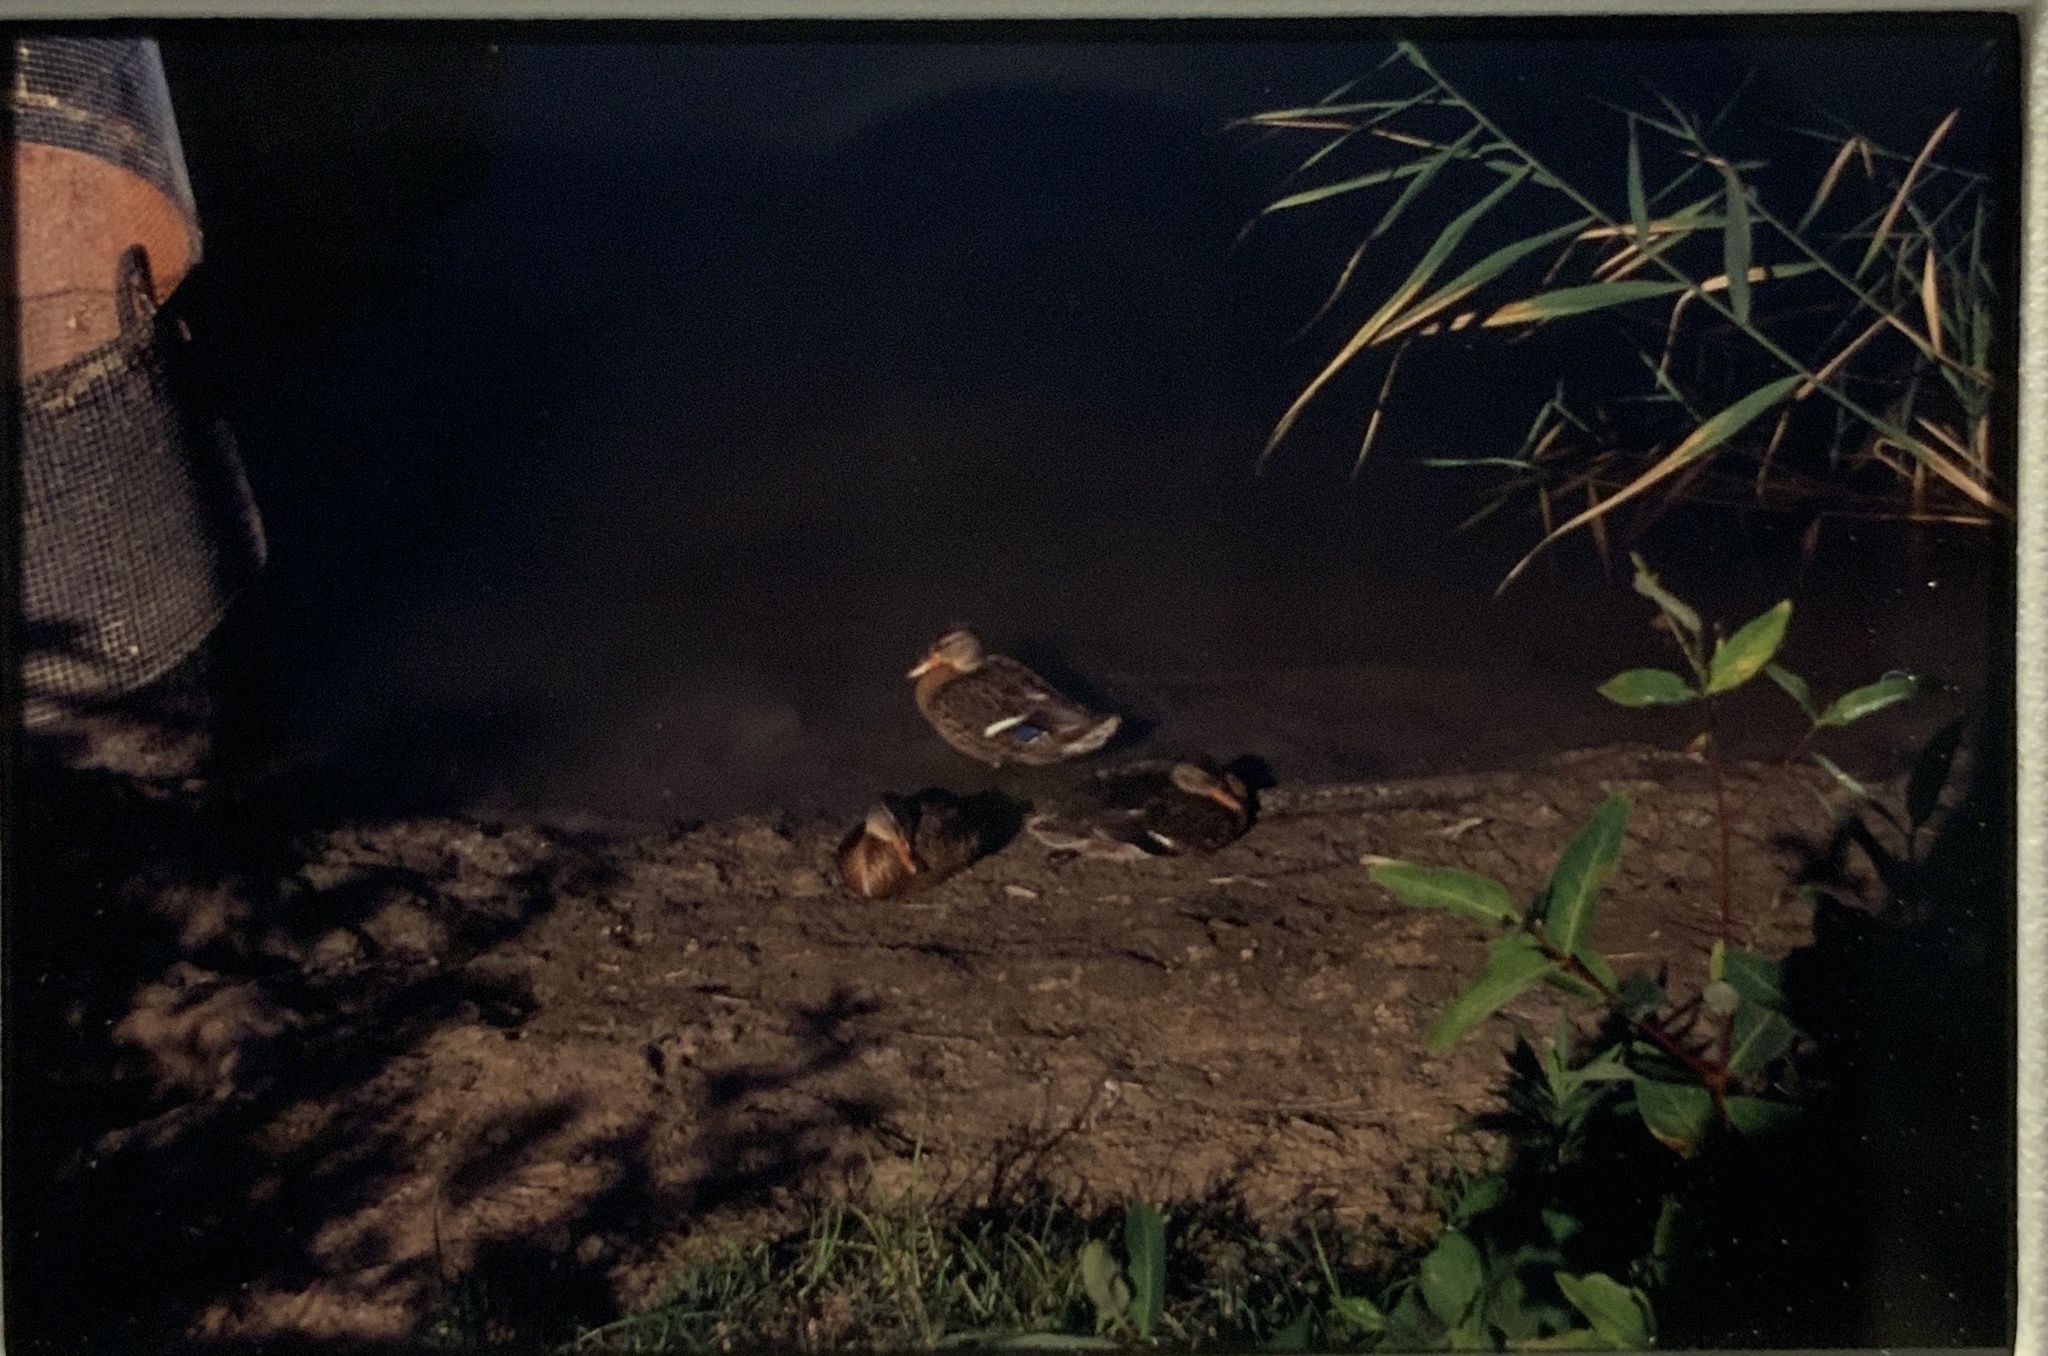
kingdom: Animalia
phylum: Chordata
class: Aves
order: Anseriformes
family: Anatidae
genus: Anas
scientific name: Anas platyrhynchos
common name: Mallard
